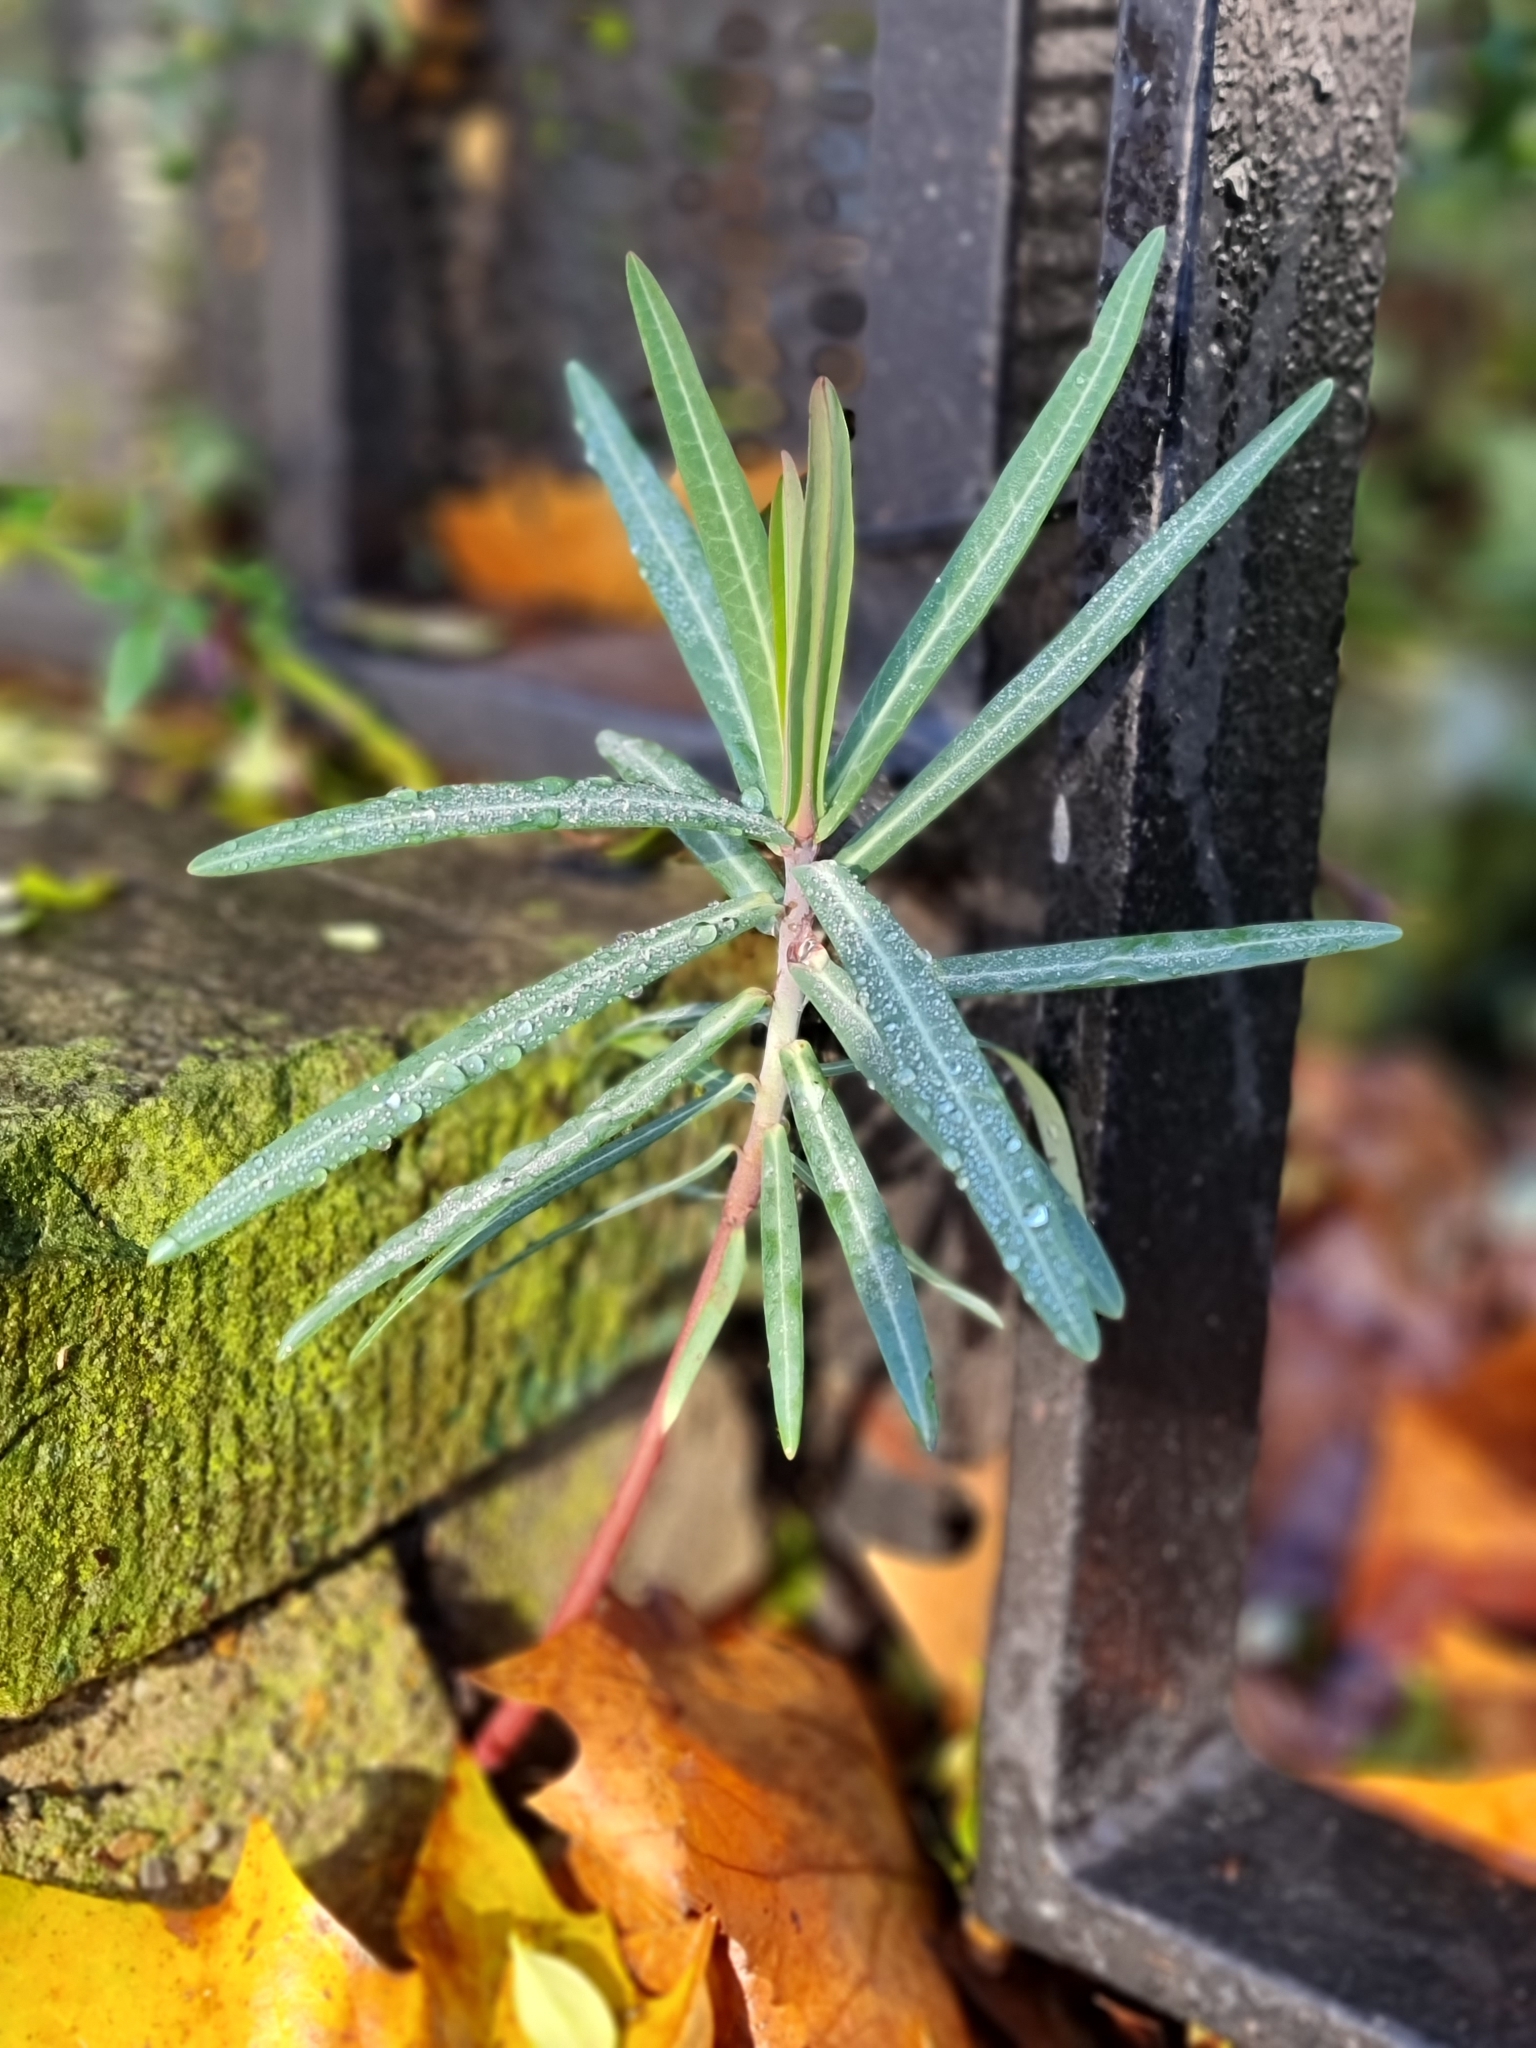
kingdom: Plantae
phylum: Tracheophyta
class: Magnoliopsida
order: Malpighiales
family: Euphorbiaceae
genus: Euphorbia
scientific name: Euphorbia lathyris
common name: Caper spurge
